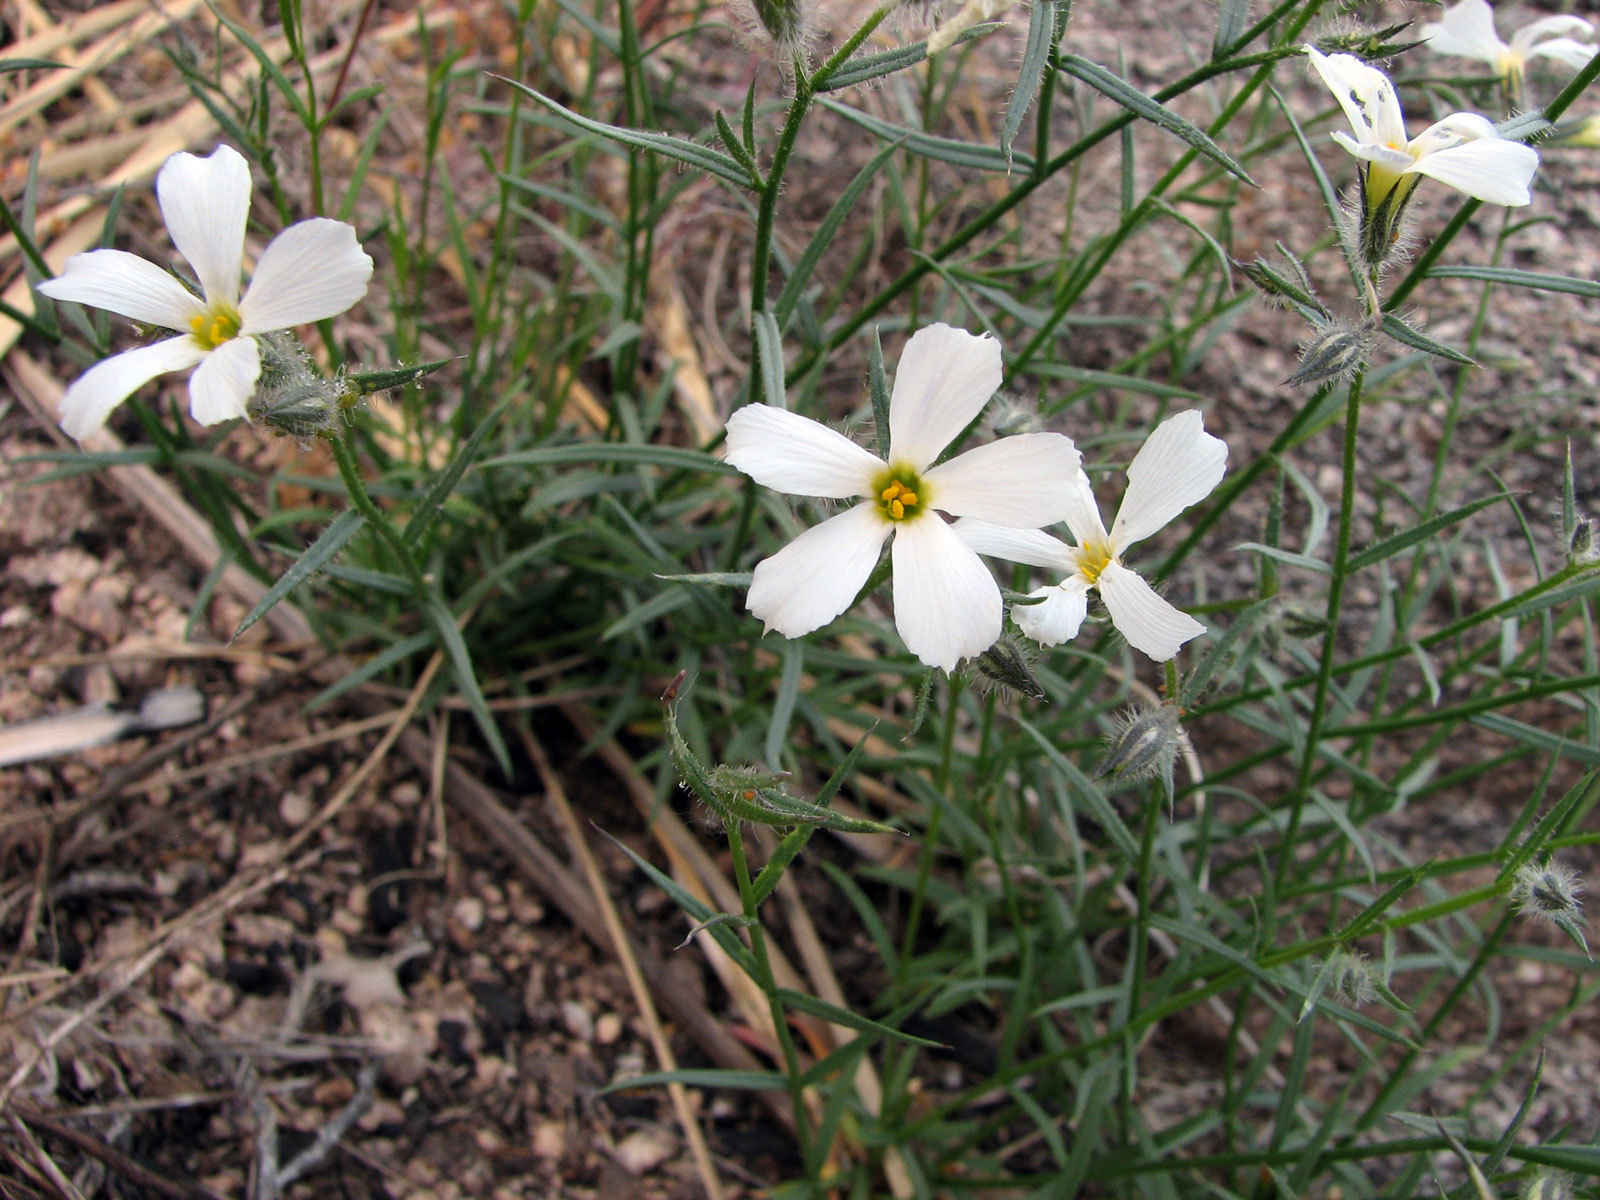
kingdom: Plantae
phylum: Tracheophyta
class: Magnoliopsida
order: Ericales
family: Polemoniaceae
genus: Phlox
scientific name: Phlox tenuifolia
